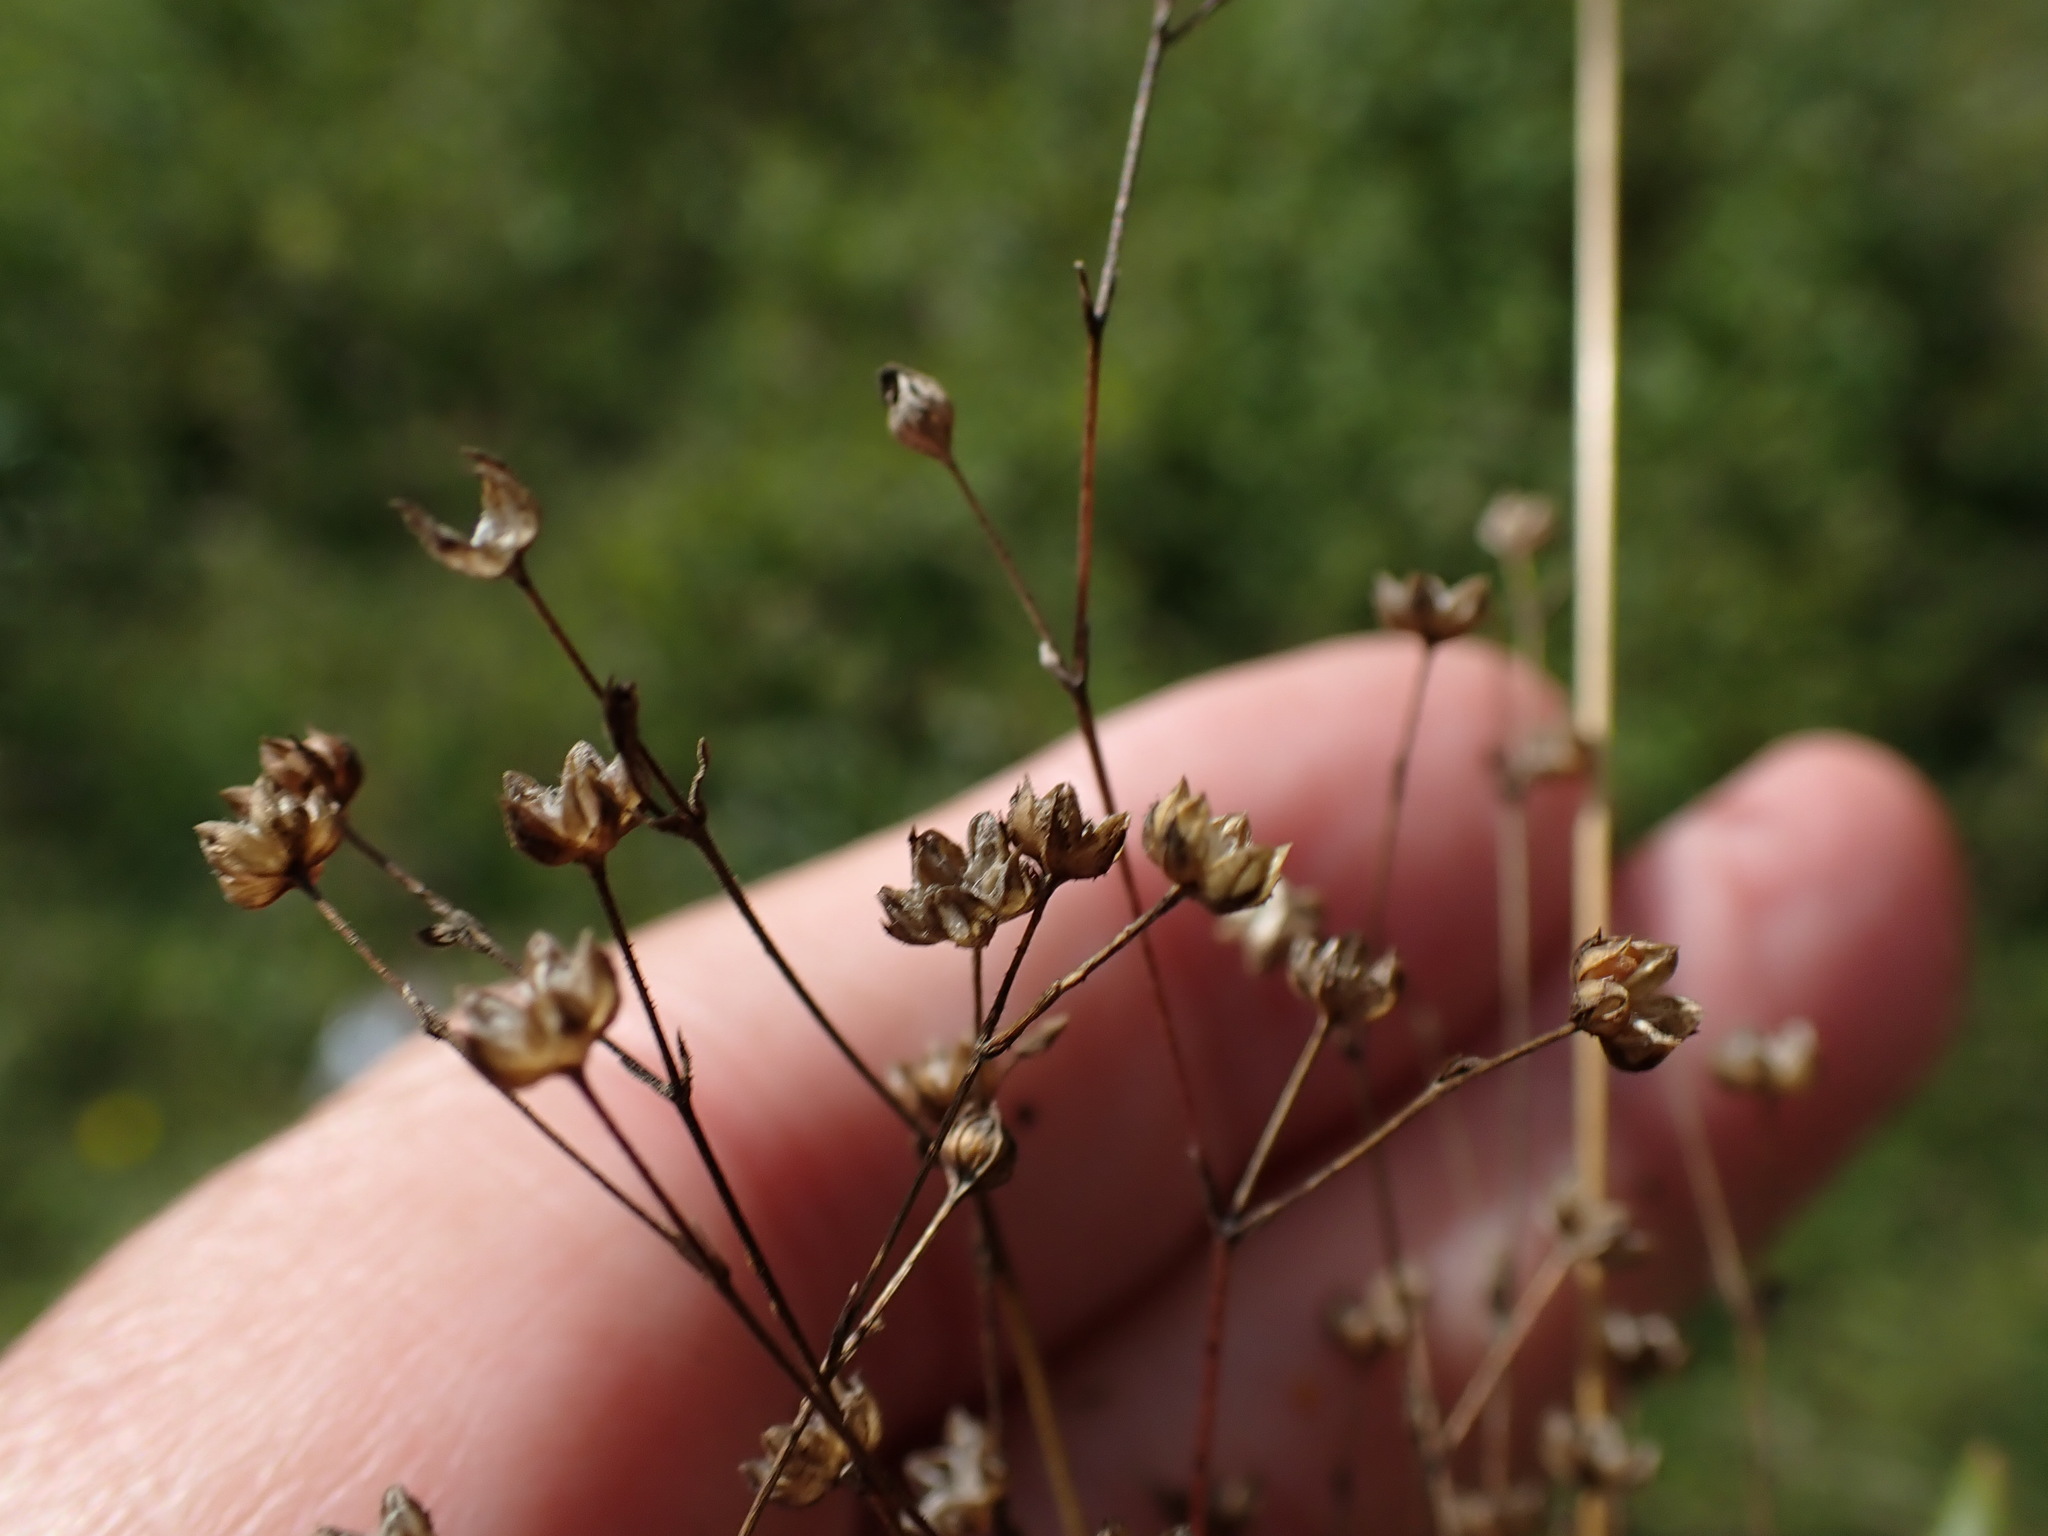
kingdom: Plantae
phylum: Tracheophyta
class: Magnoliopsida
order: Malpighiales
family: Linaceae
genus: Linum
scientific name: Linum catharticum
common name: Fairy flax
